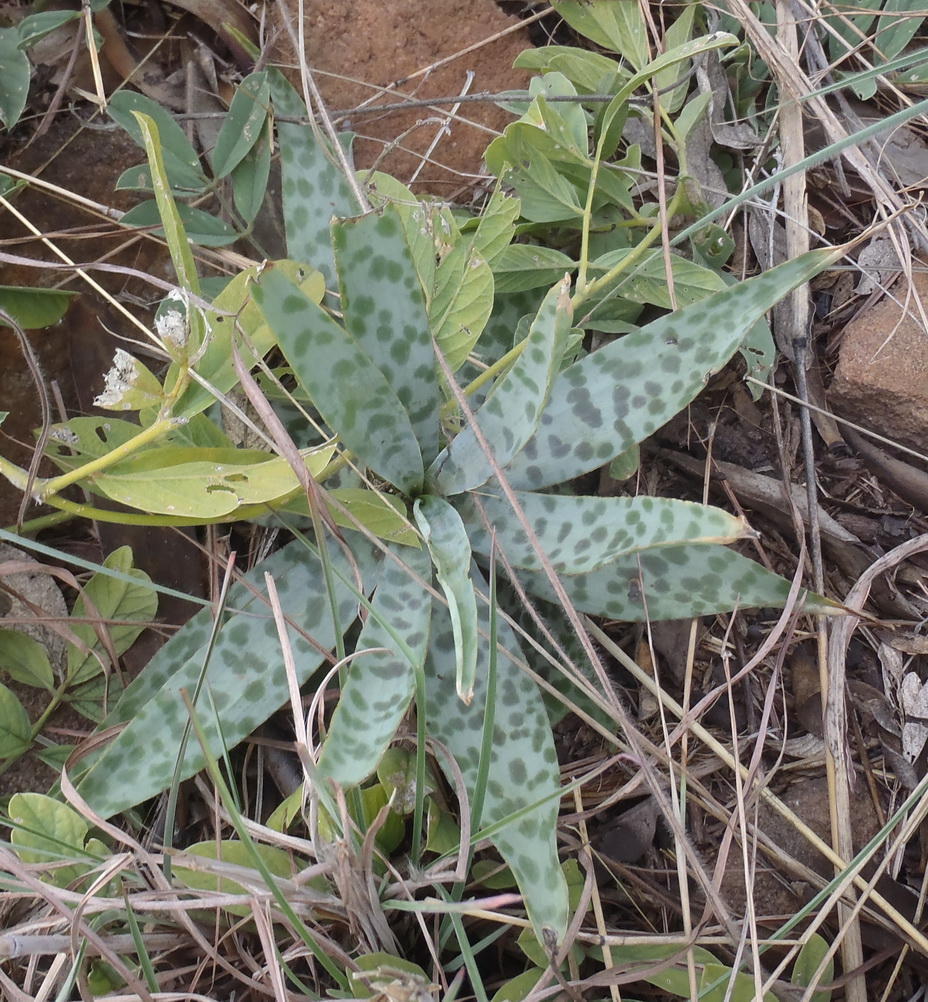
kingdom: Plantae
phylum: Tracheophyta
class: Liliopsida
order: Asparagales
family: Asparagaceae
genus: Ledebouria
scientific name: Ledebouria revoluta
